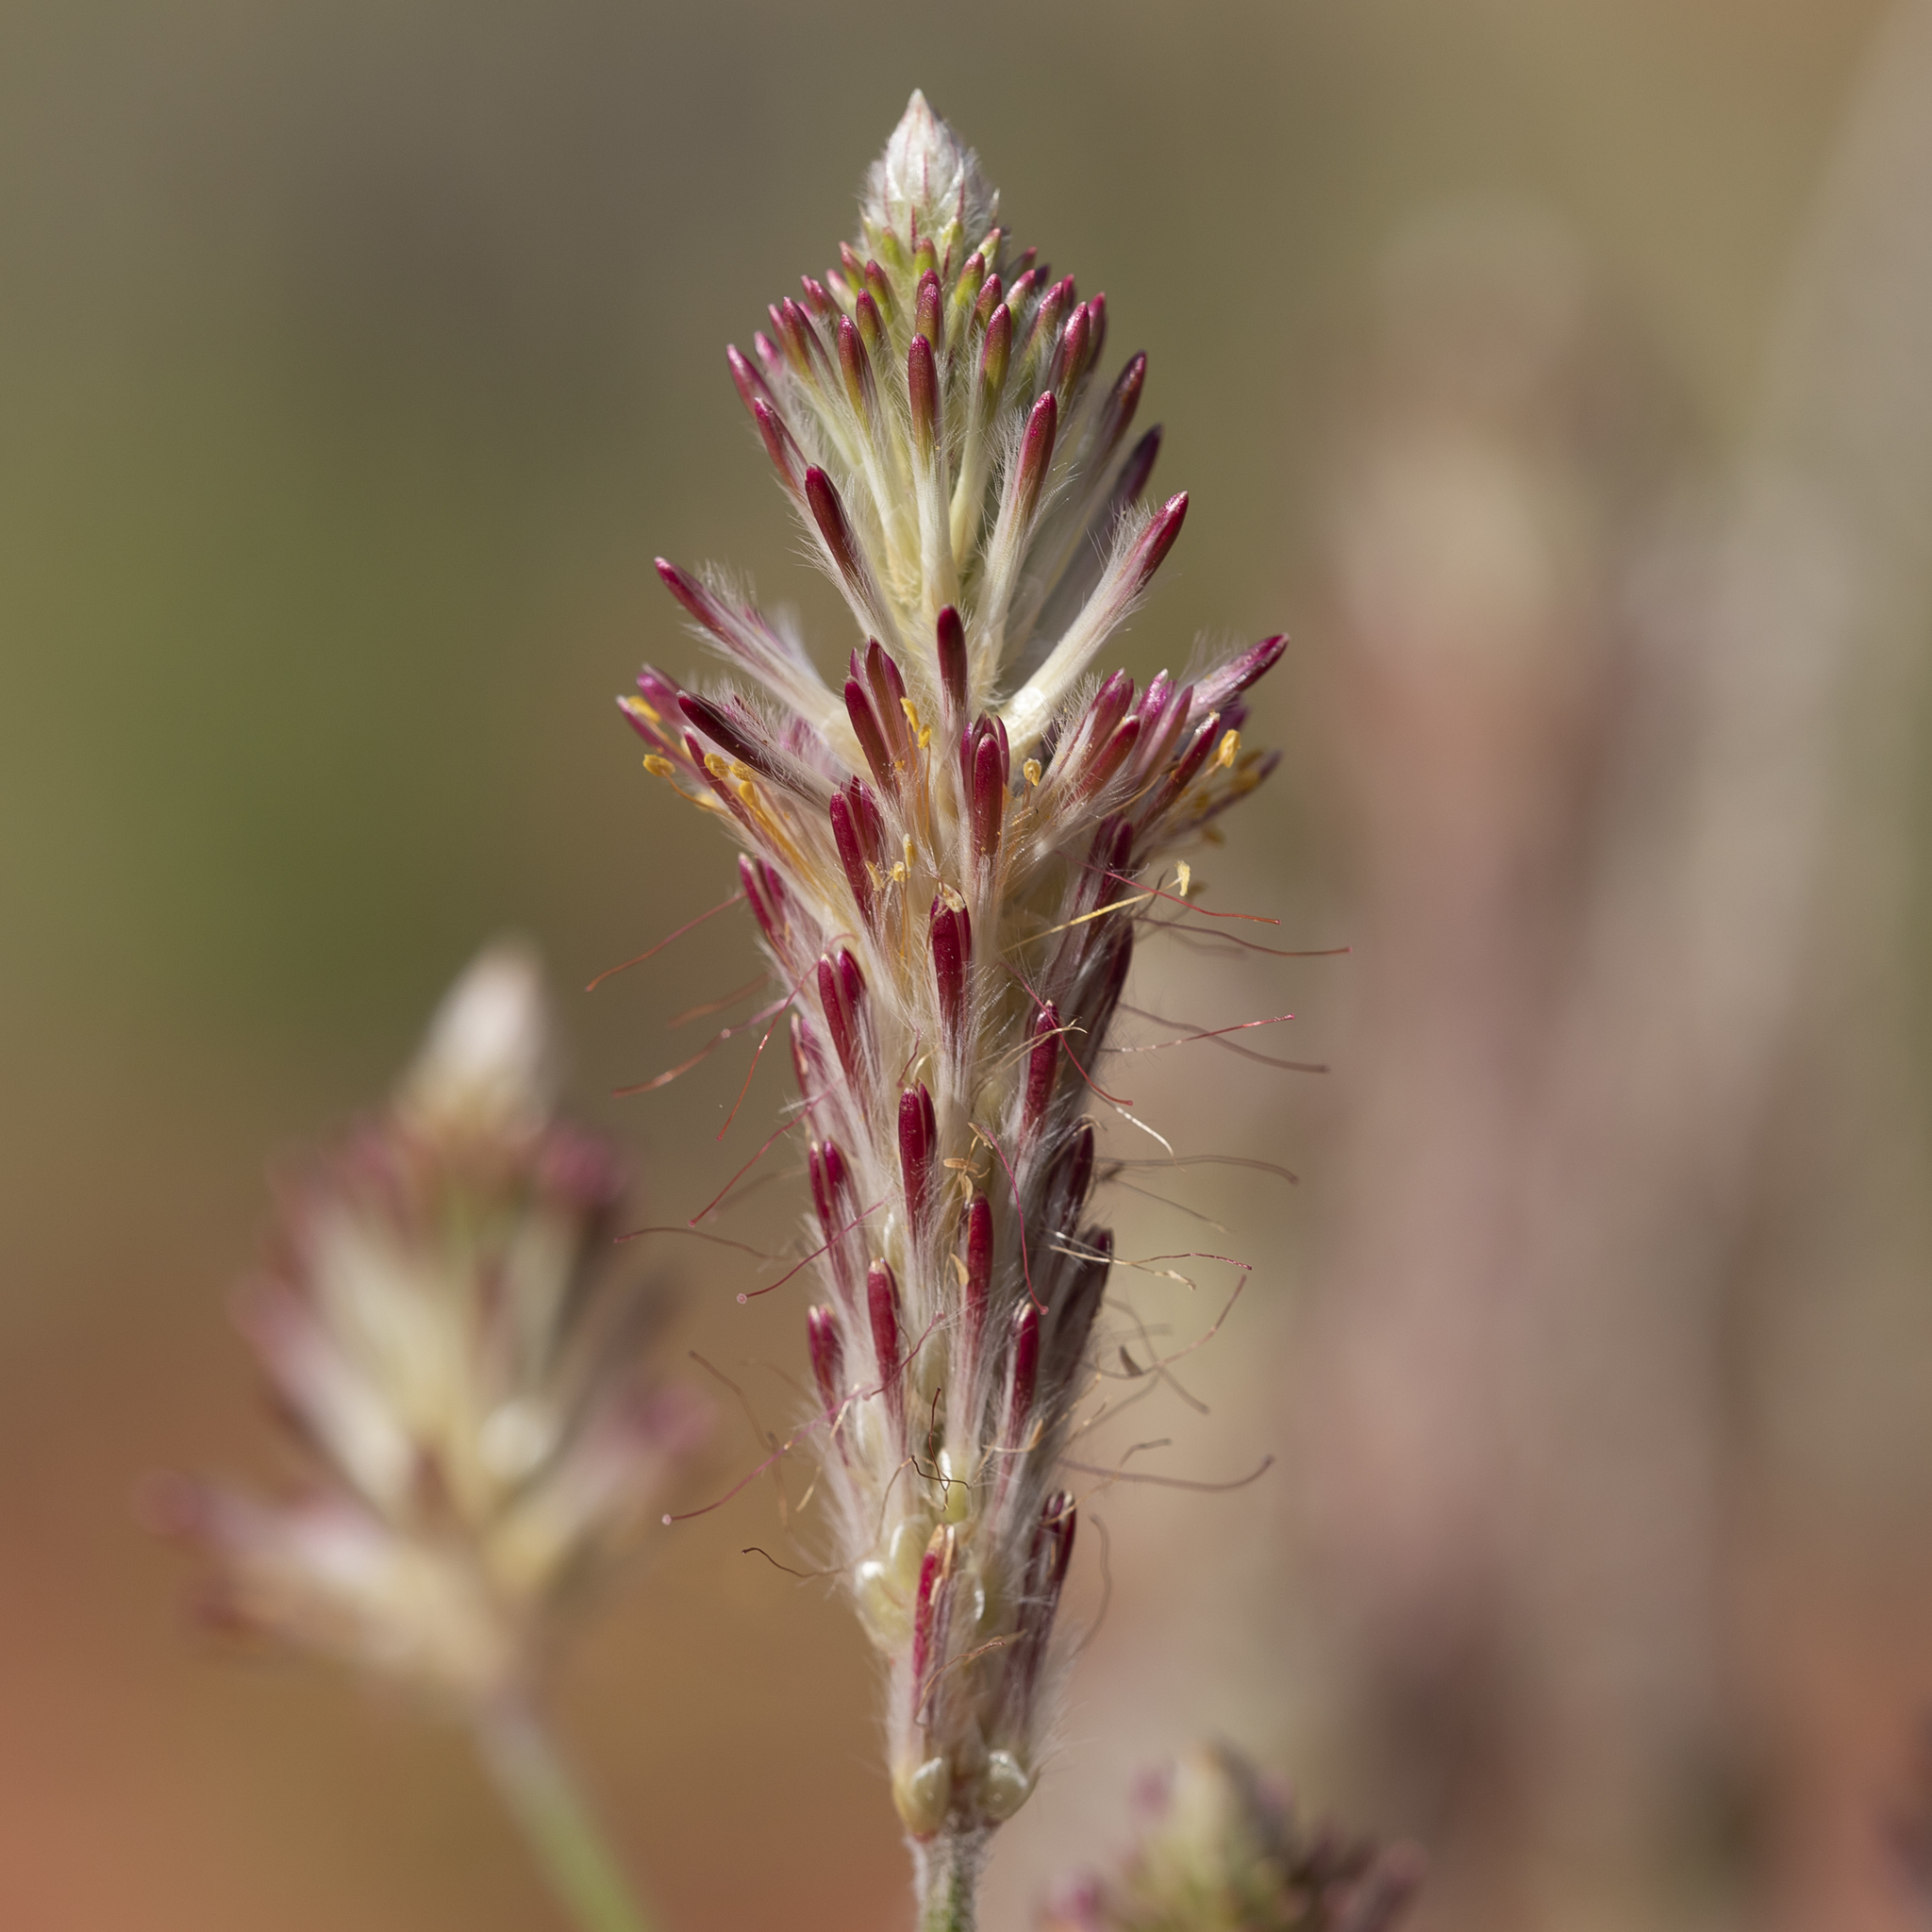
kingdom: Plantae
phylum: Tracheophyta
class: Magnoliopsida
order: Caryophyllales
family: Amaranthaceae
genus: Ptilotus
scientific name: Ptilotus polystachyus
